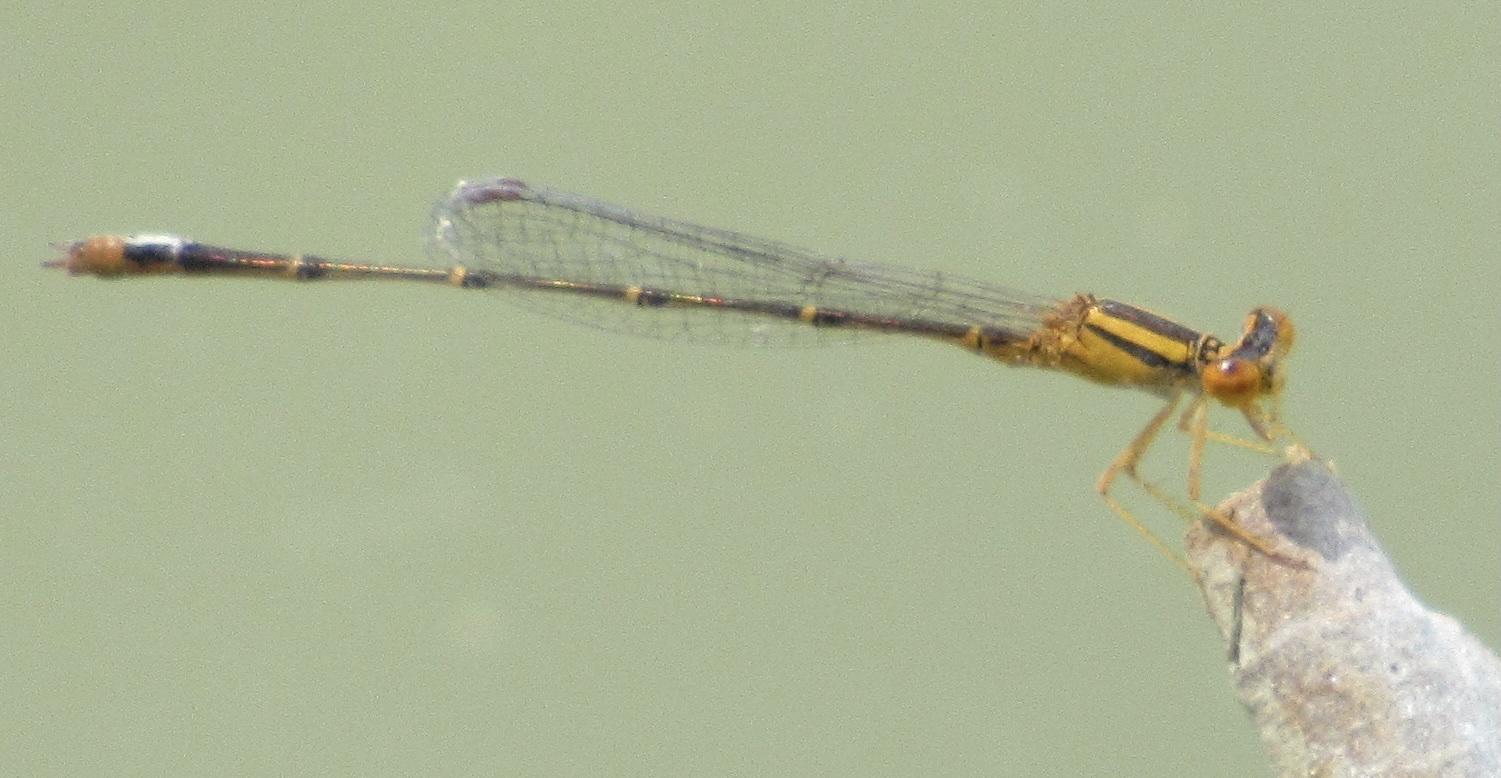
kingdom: Animalia
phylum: Arthropoda
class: Insecta
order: Odonata
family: Coenagrionidae
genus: Enallagma
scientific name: Enallagma signatum
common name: Orange bluet
